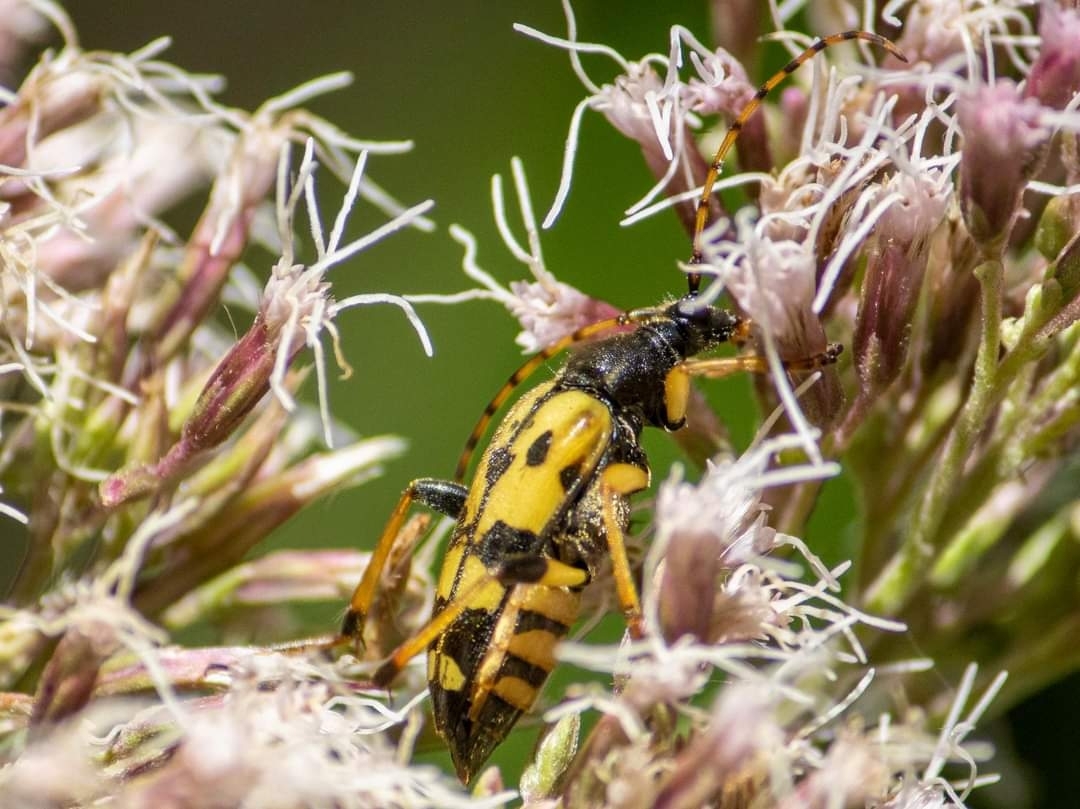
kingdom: Animalia
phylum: Arthropoda
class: Insecta
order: Coleoptera
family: Cerambycidae
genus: Rutpela
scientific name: Rutpela maculata
